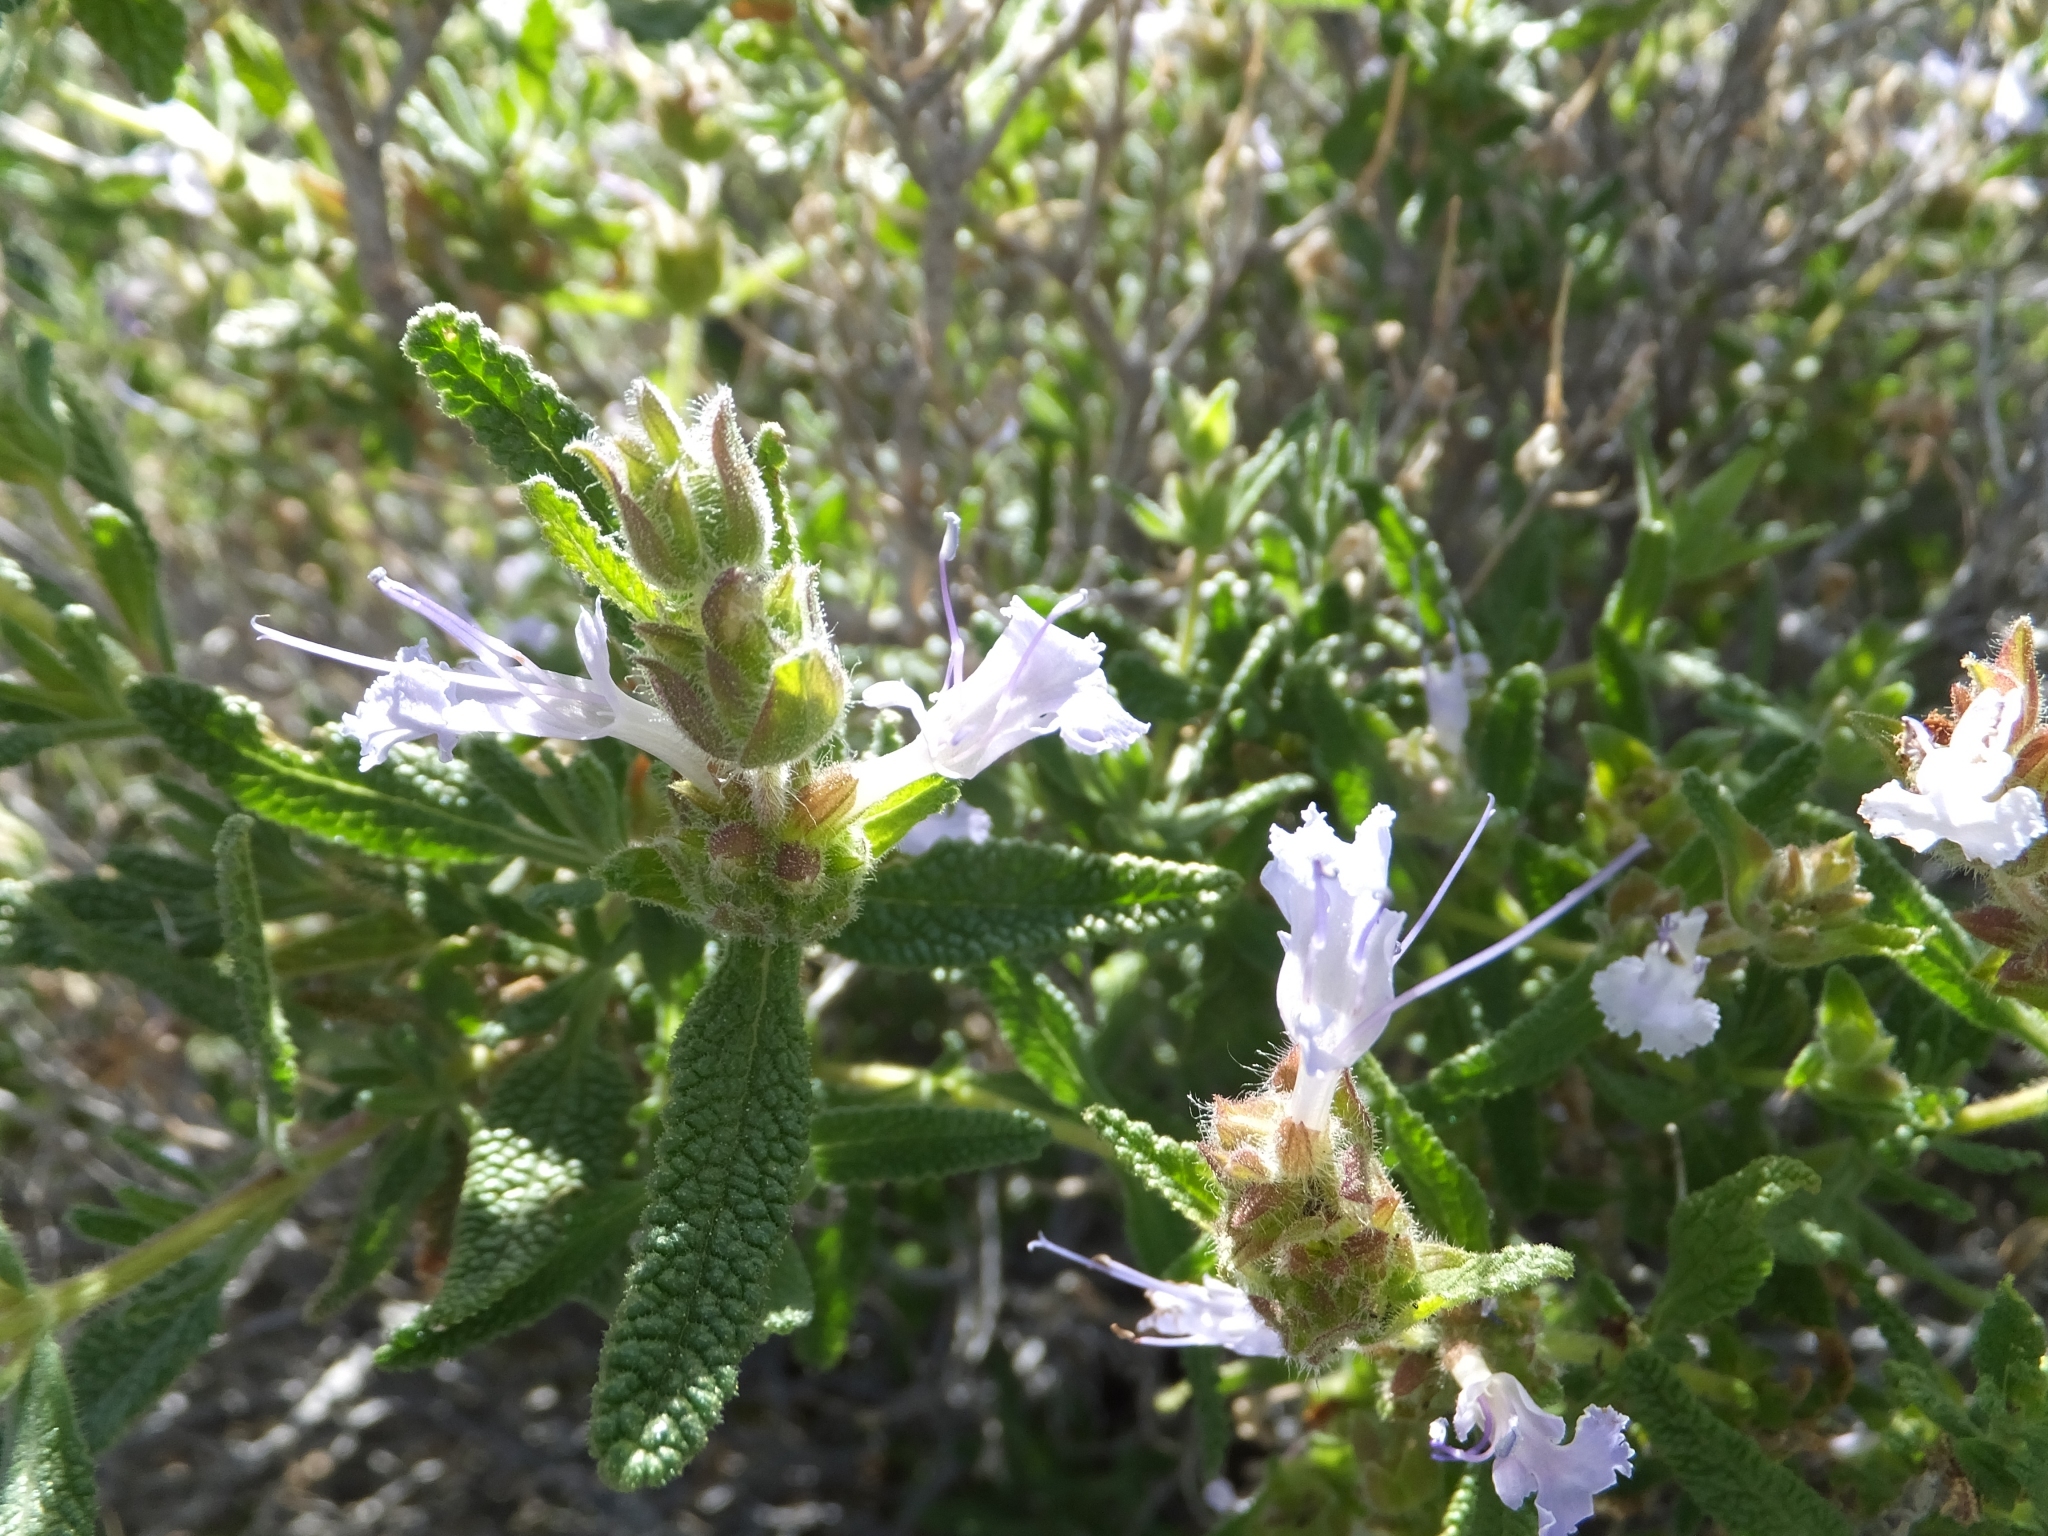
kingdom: Plantae
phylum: Tracheophyta
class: Magnoliopsida
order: Lamiales
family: Lamiaceae
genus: Salvia
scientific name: Salvia eremostachya
